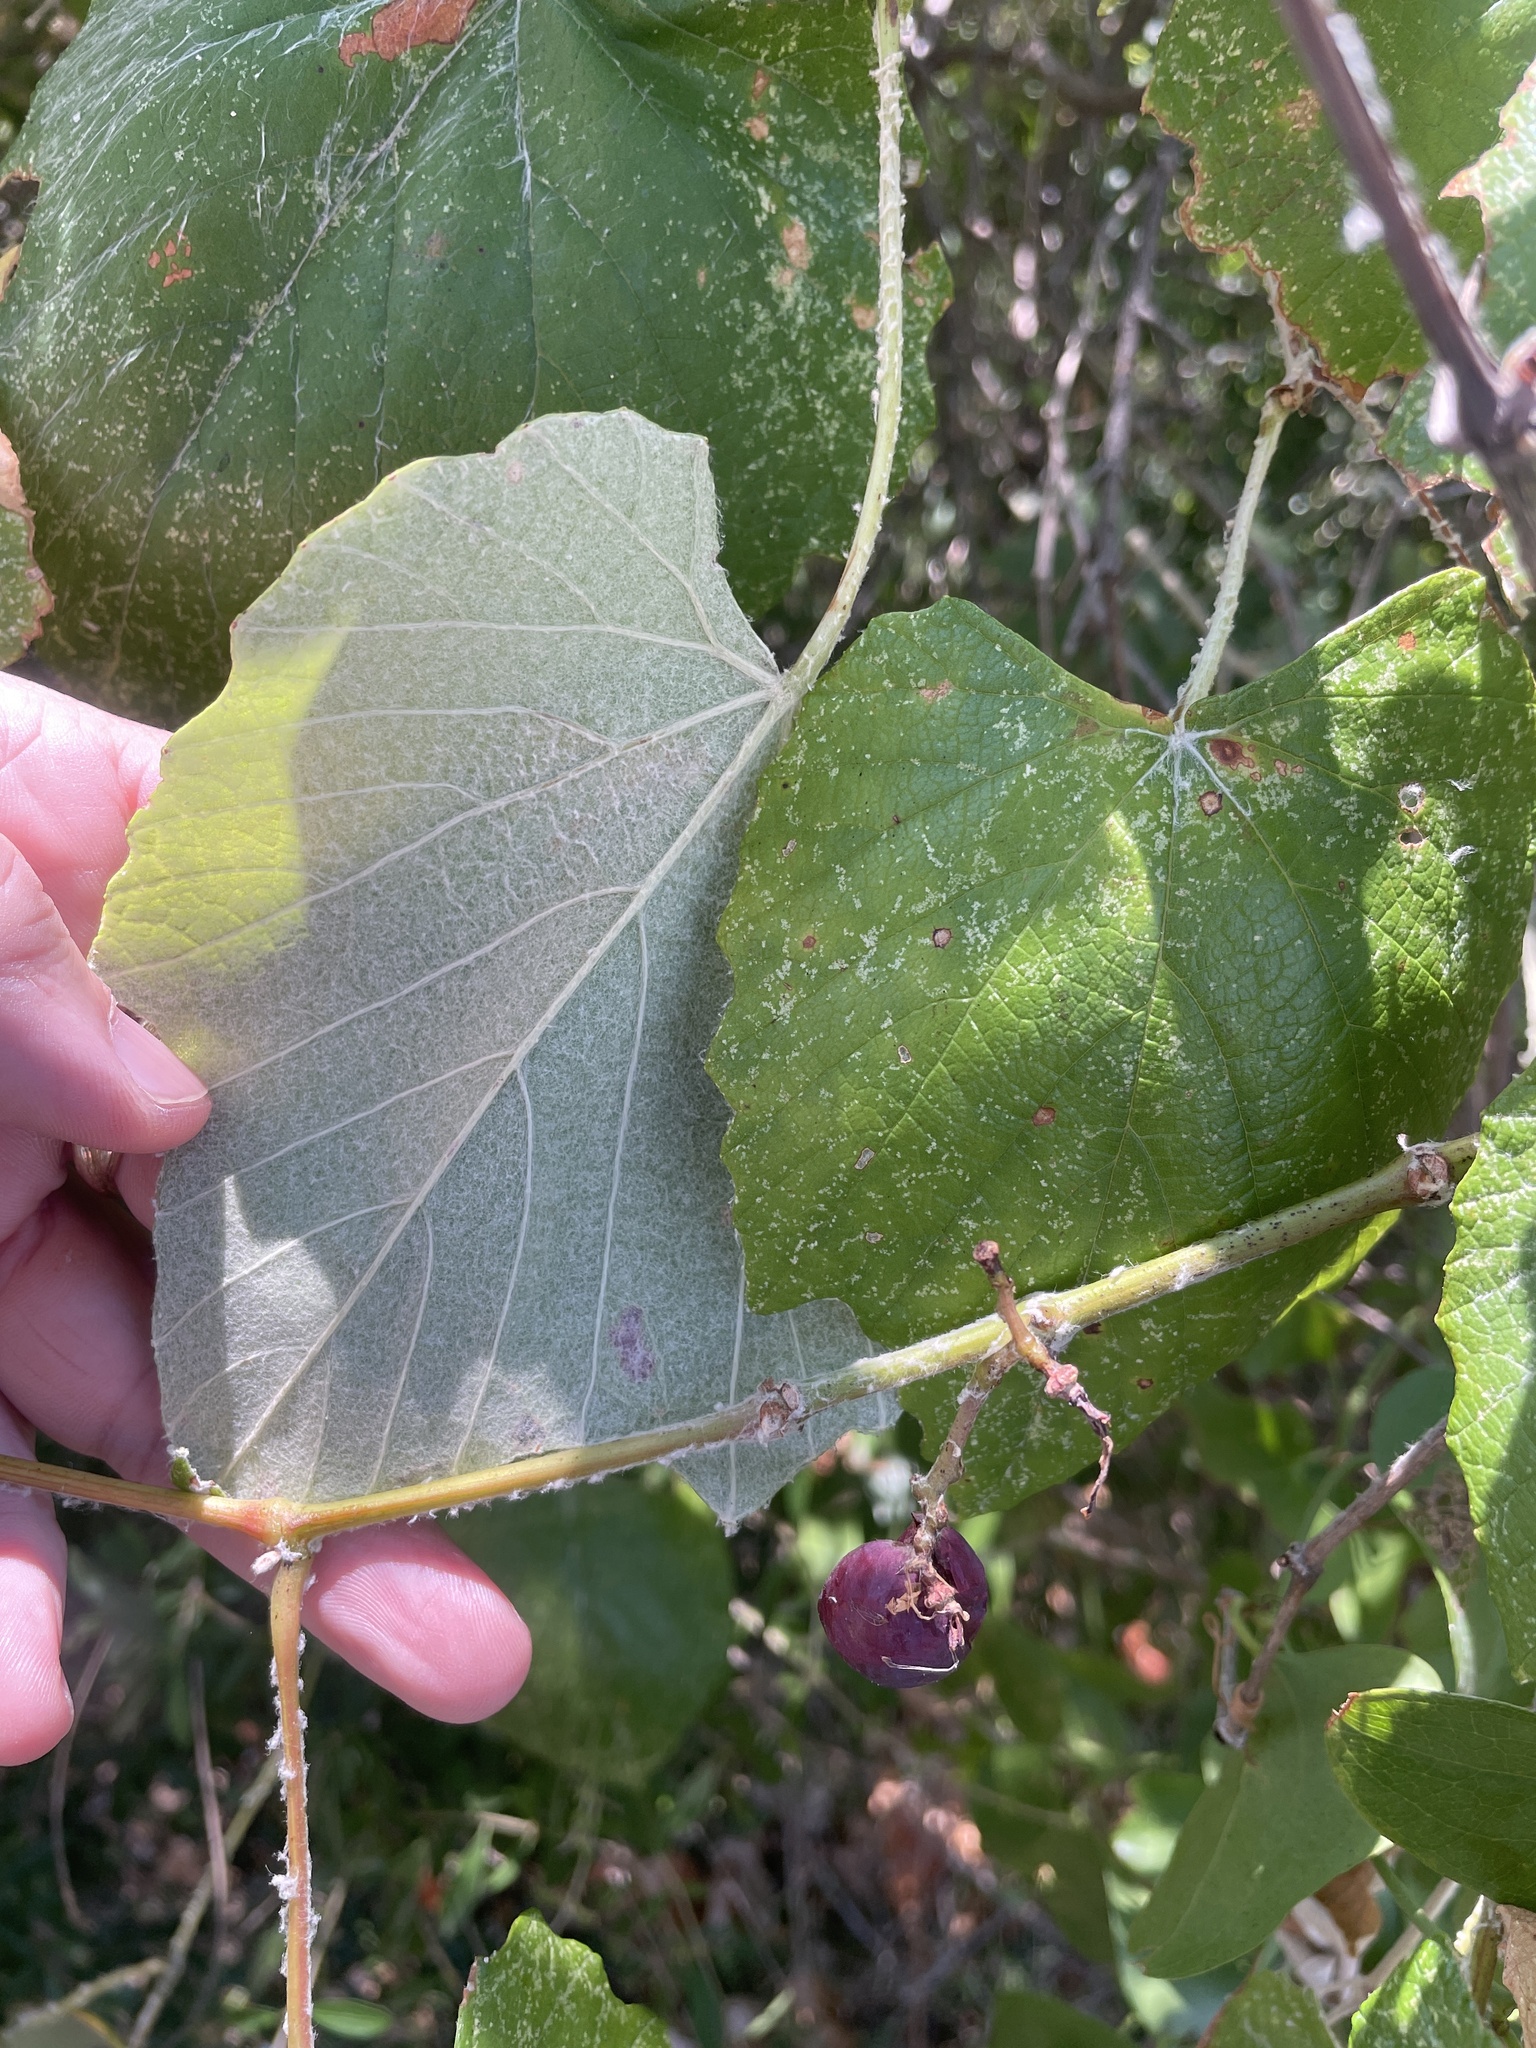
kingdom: Plantae
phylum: Tracheophyta
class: Magnoliopsida
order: Vitales
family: Vitaceae
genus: Vitis
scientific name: Vitis mustangensis
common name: Mustang grape
